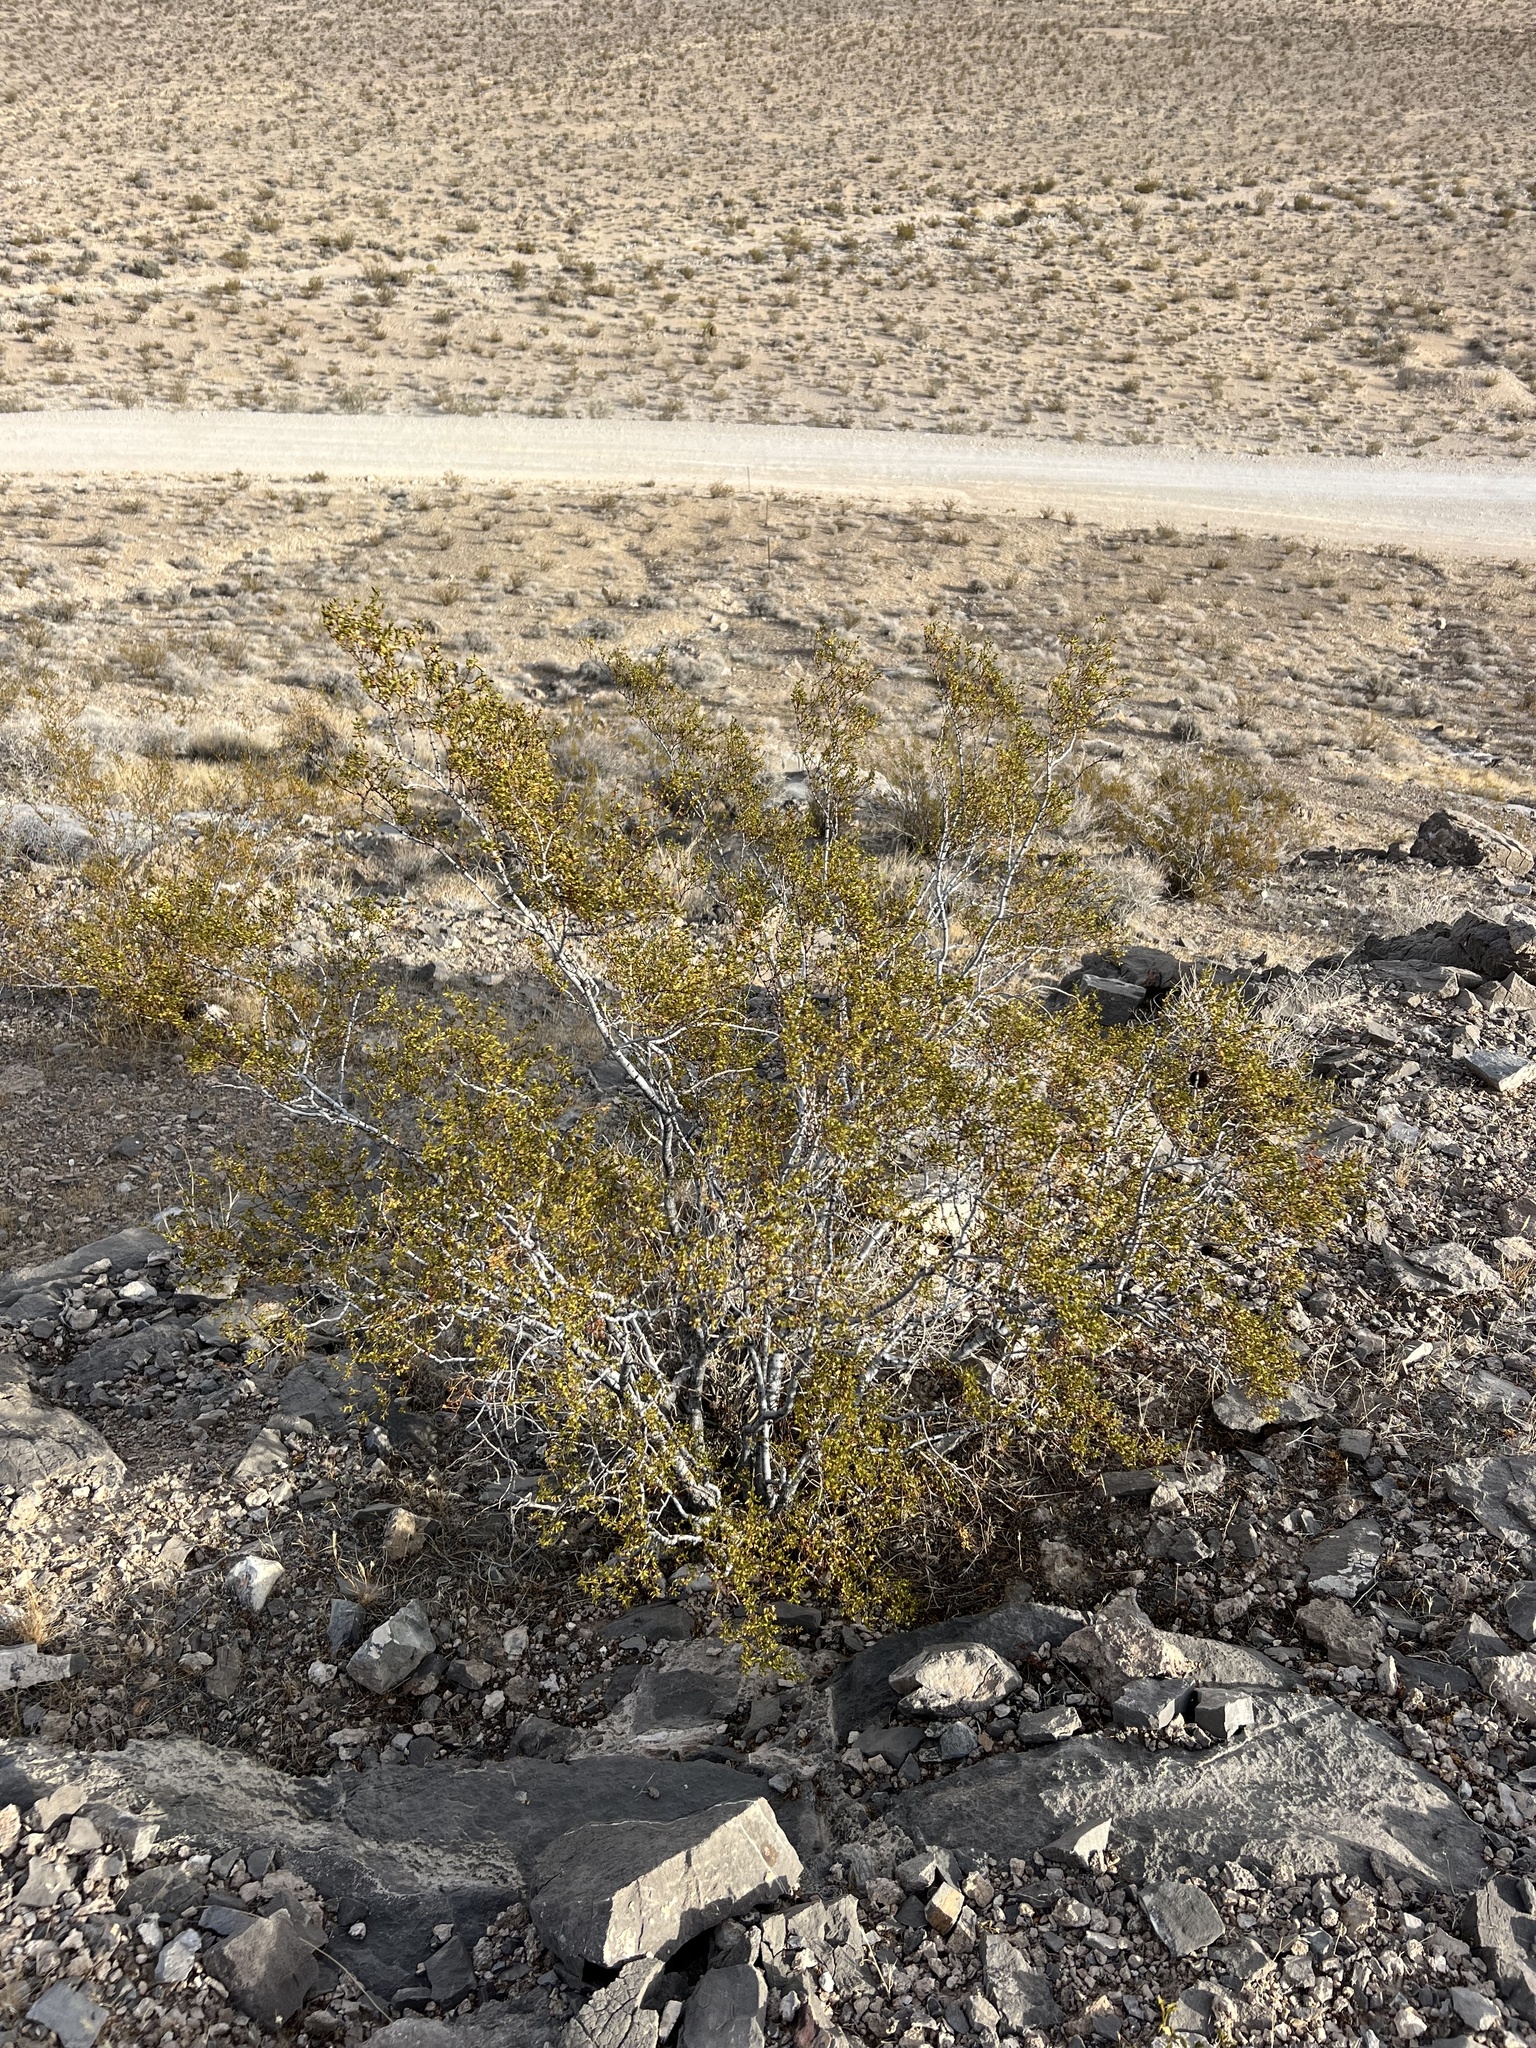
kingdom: Plantae
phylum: Tracheophyta
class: Magnoliopsida
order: Zygophyllales
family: Zygophyllaceae
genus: Larrea
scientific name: Larrea tridentata
